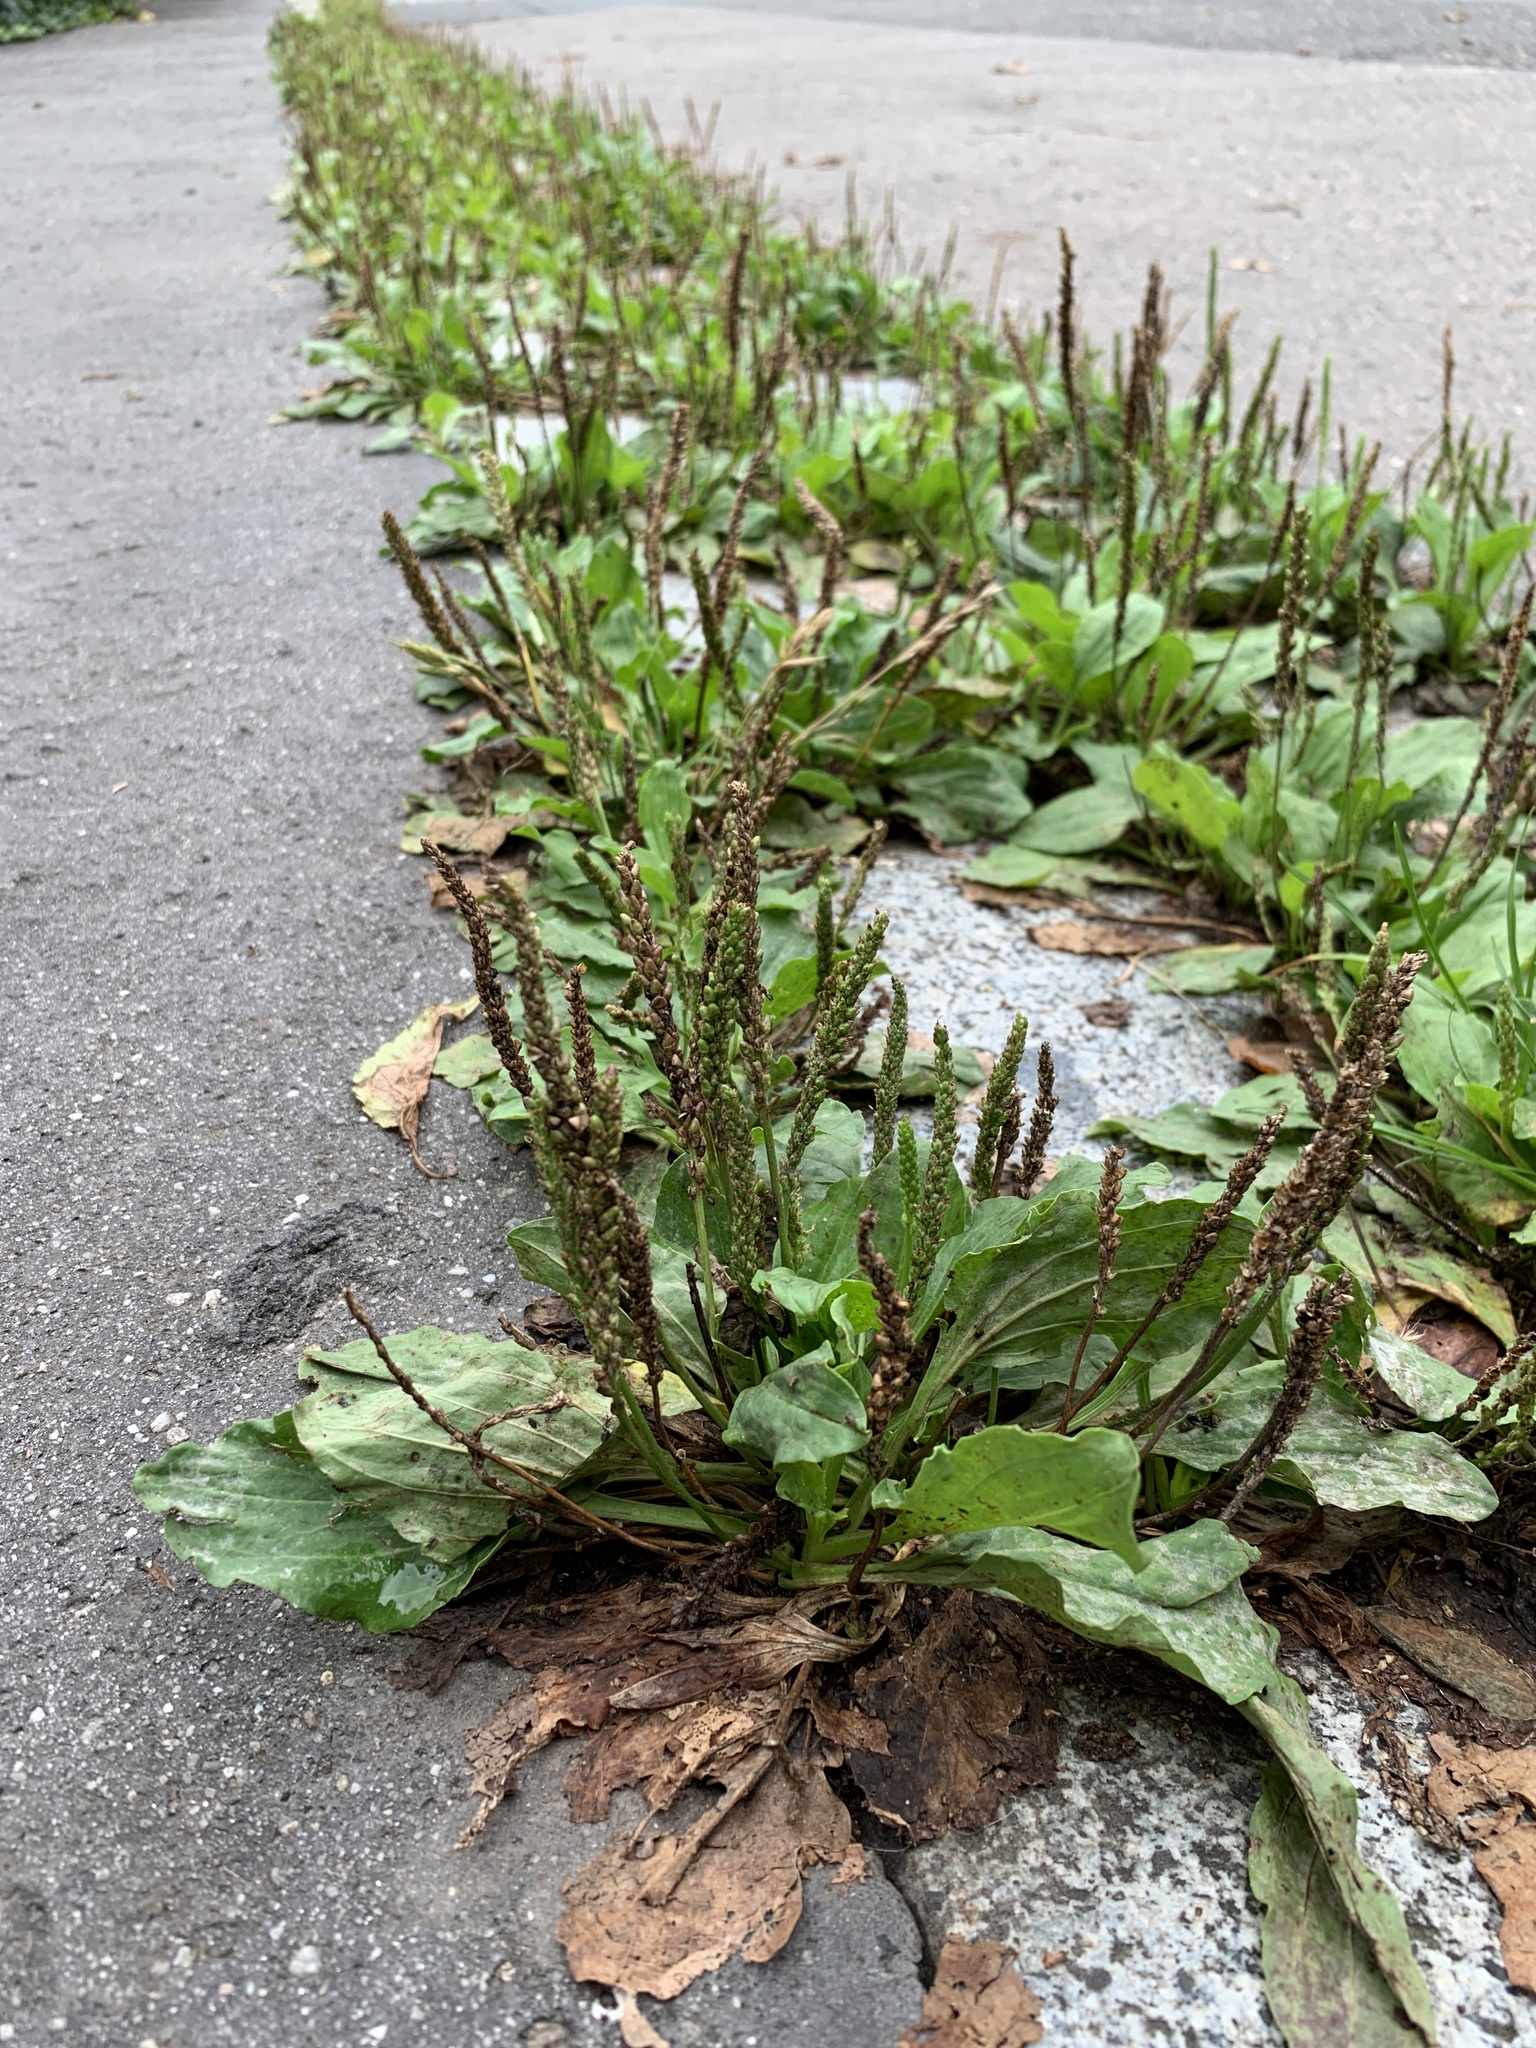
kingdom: Plantae
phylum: Tracheophyta
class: Magnoliopsida
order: Lamiales
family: Plantaginaceae
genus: Plantago
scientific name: Plantago major
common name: Common plantain
